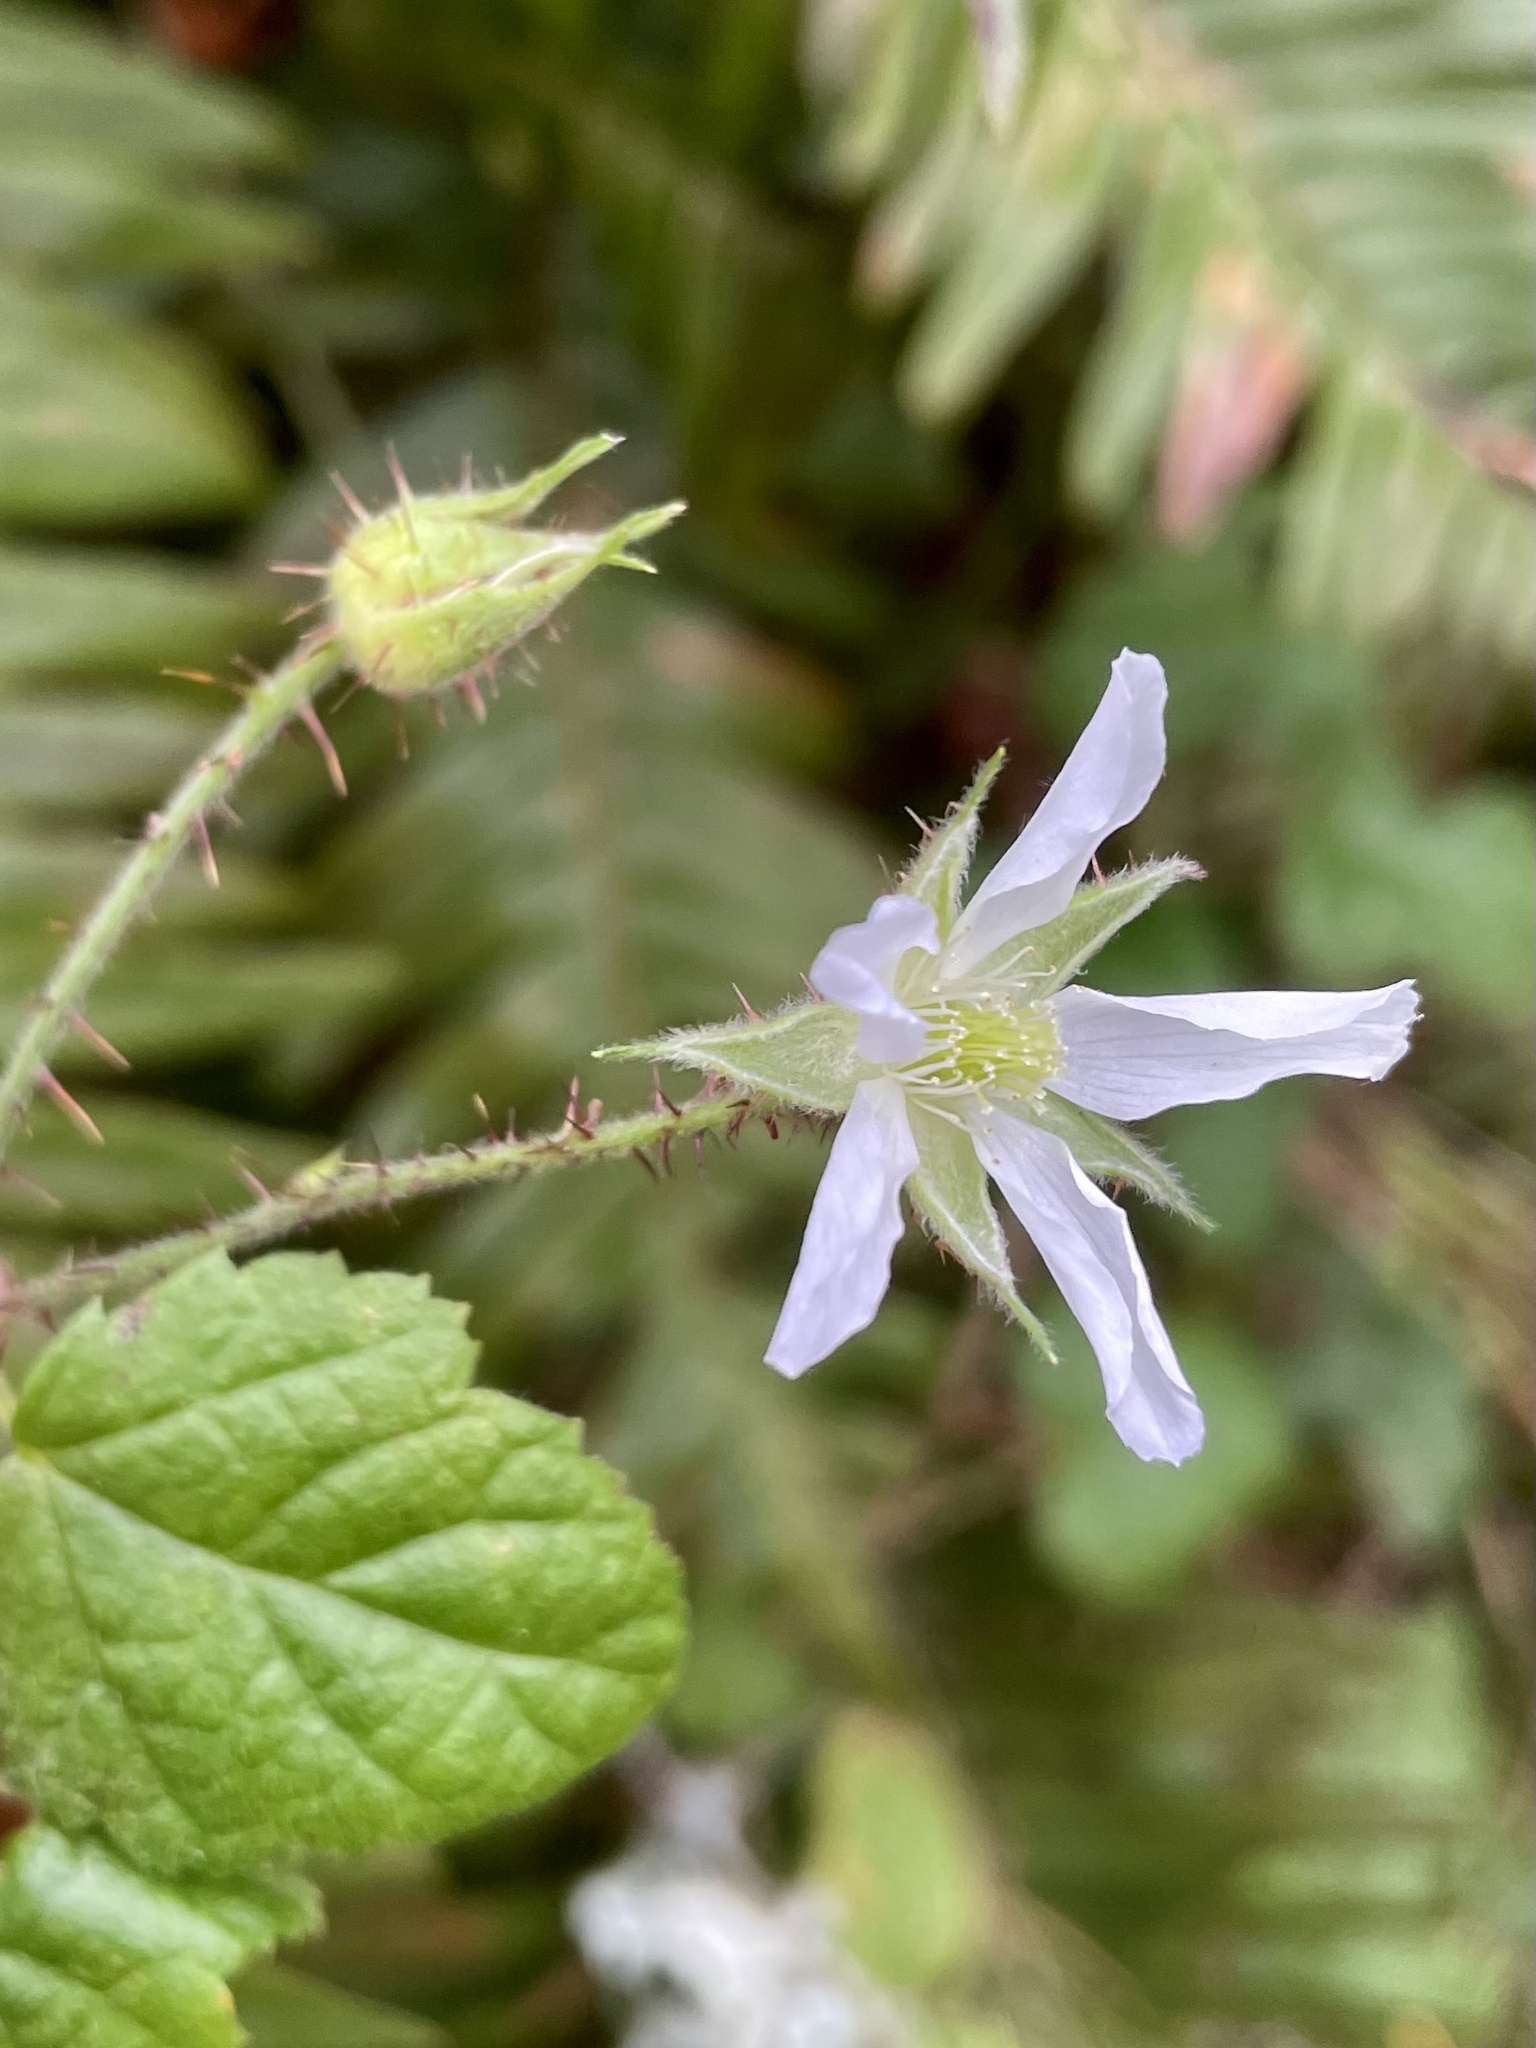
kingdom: Plantae
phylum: Tracheophyta
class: Magnoliopsida
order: Rosales
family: Rosaceae
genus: Rubus
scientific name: Rubus ursinus
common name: Pacific blackberry
